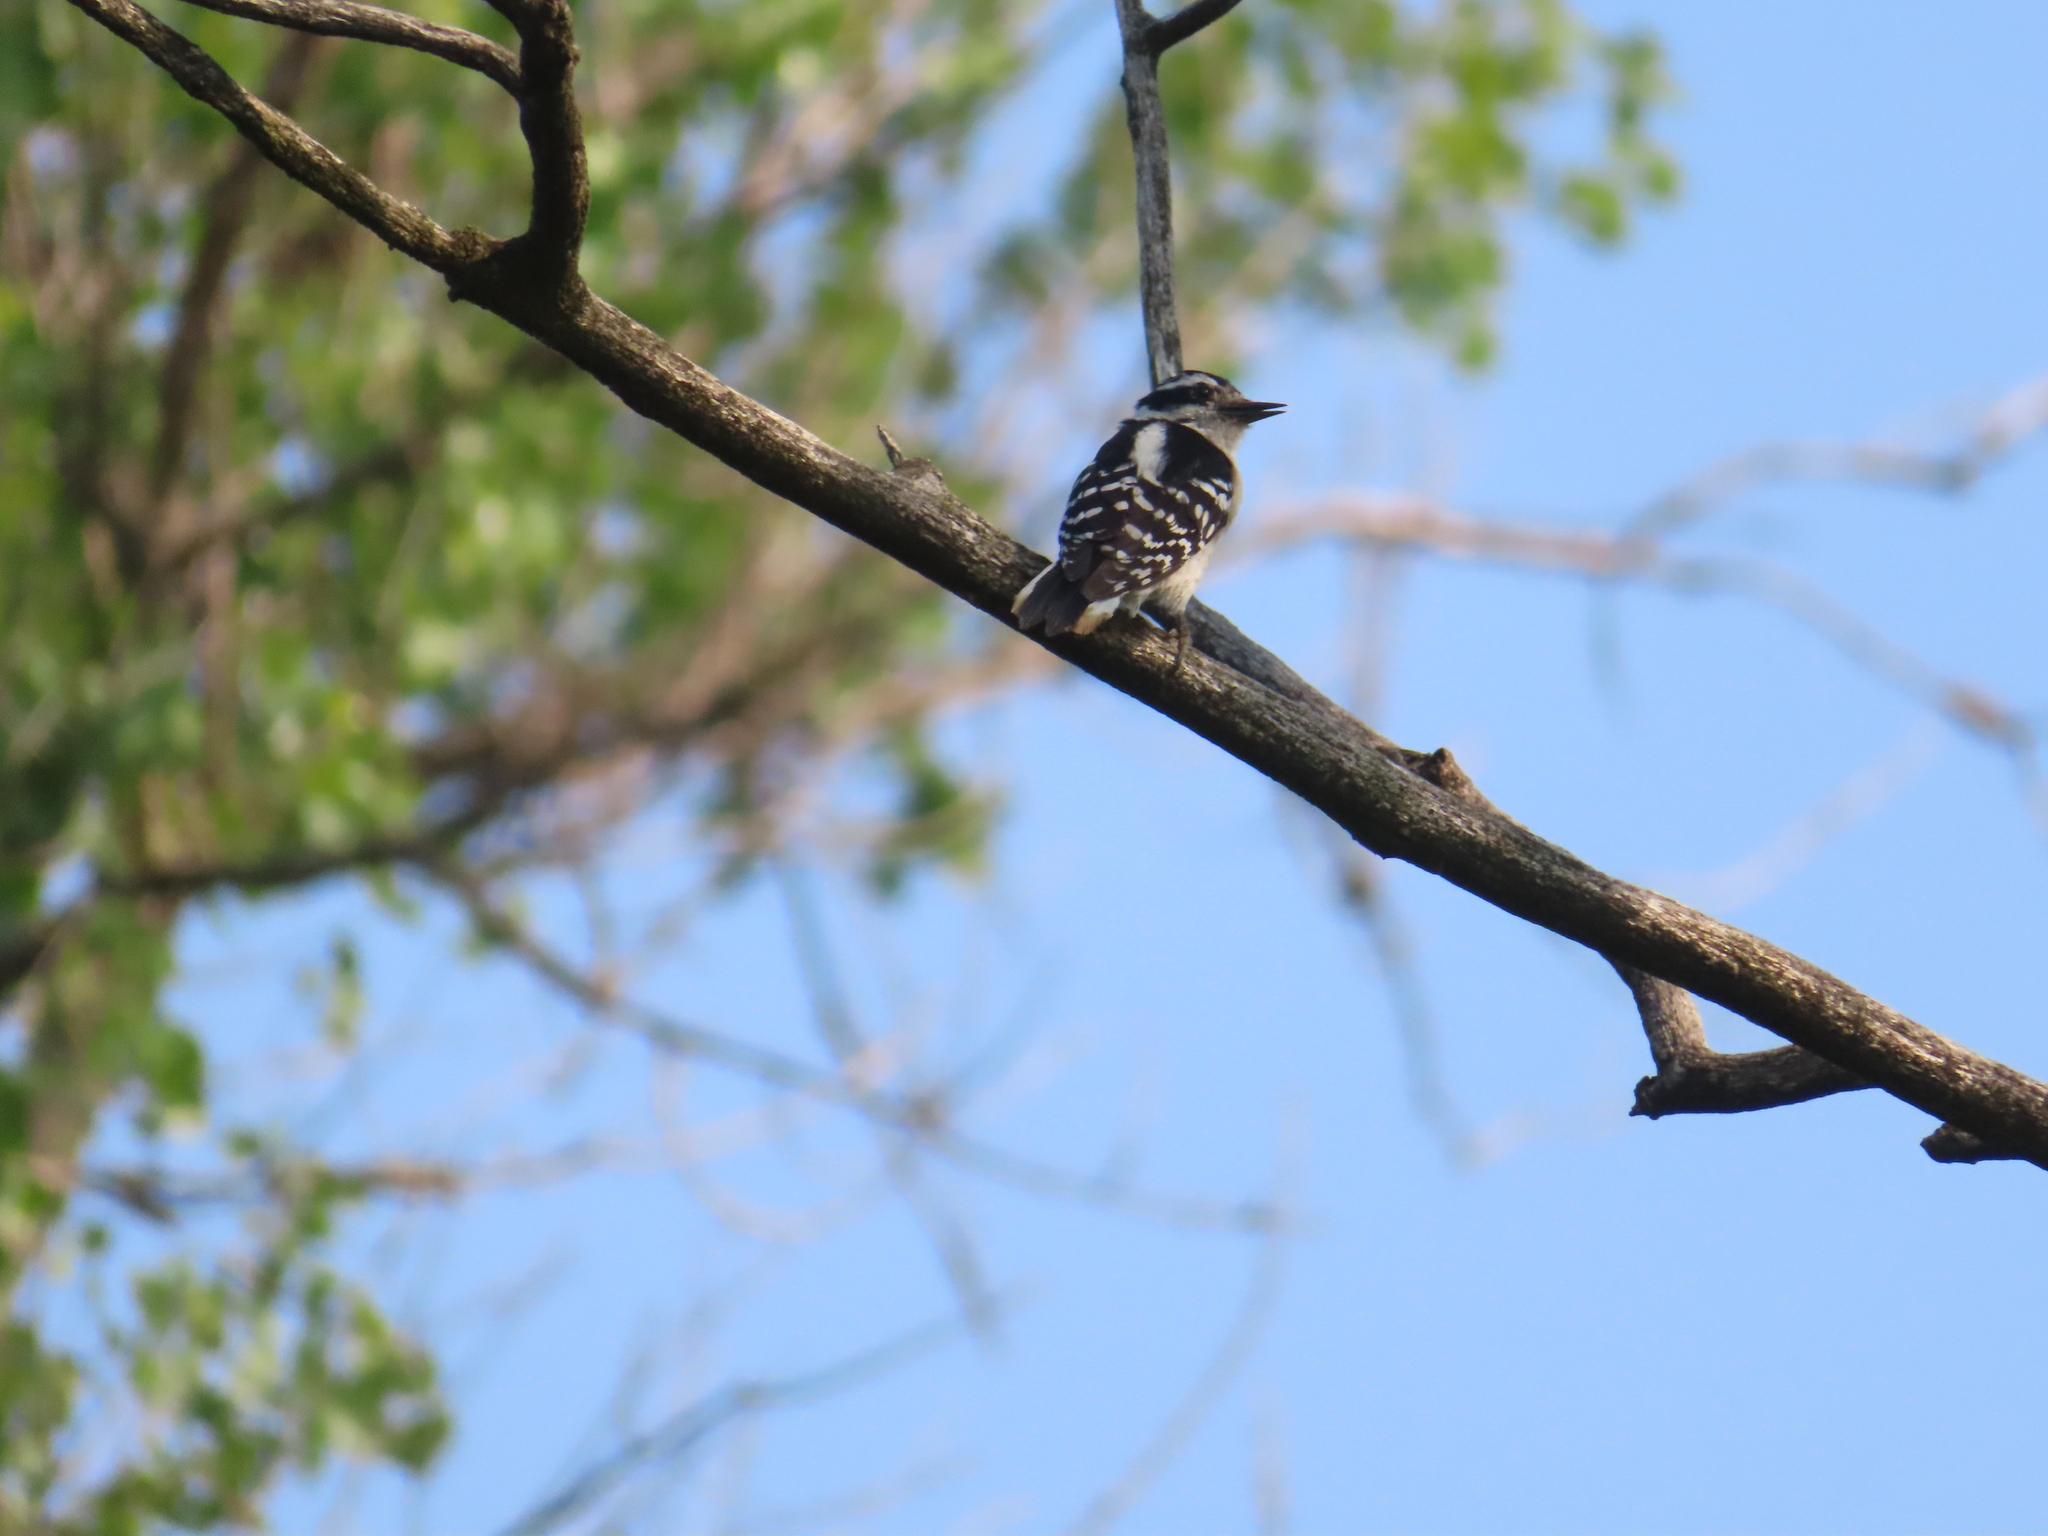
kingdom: Animalia
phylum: Chordata
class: Aves
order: Piciformes
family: Picidae
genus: Dryobates
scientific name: Dryobates pubescens
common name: Downy woodpecker
